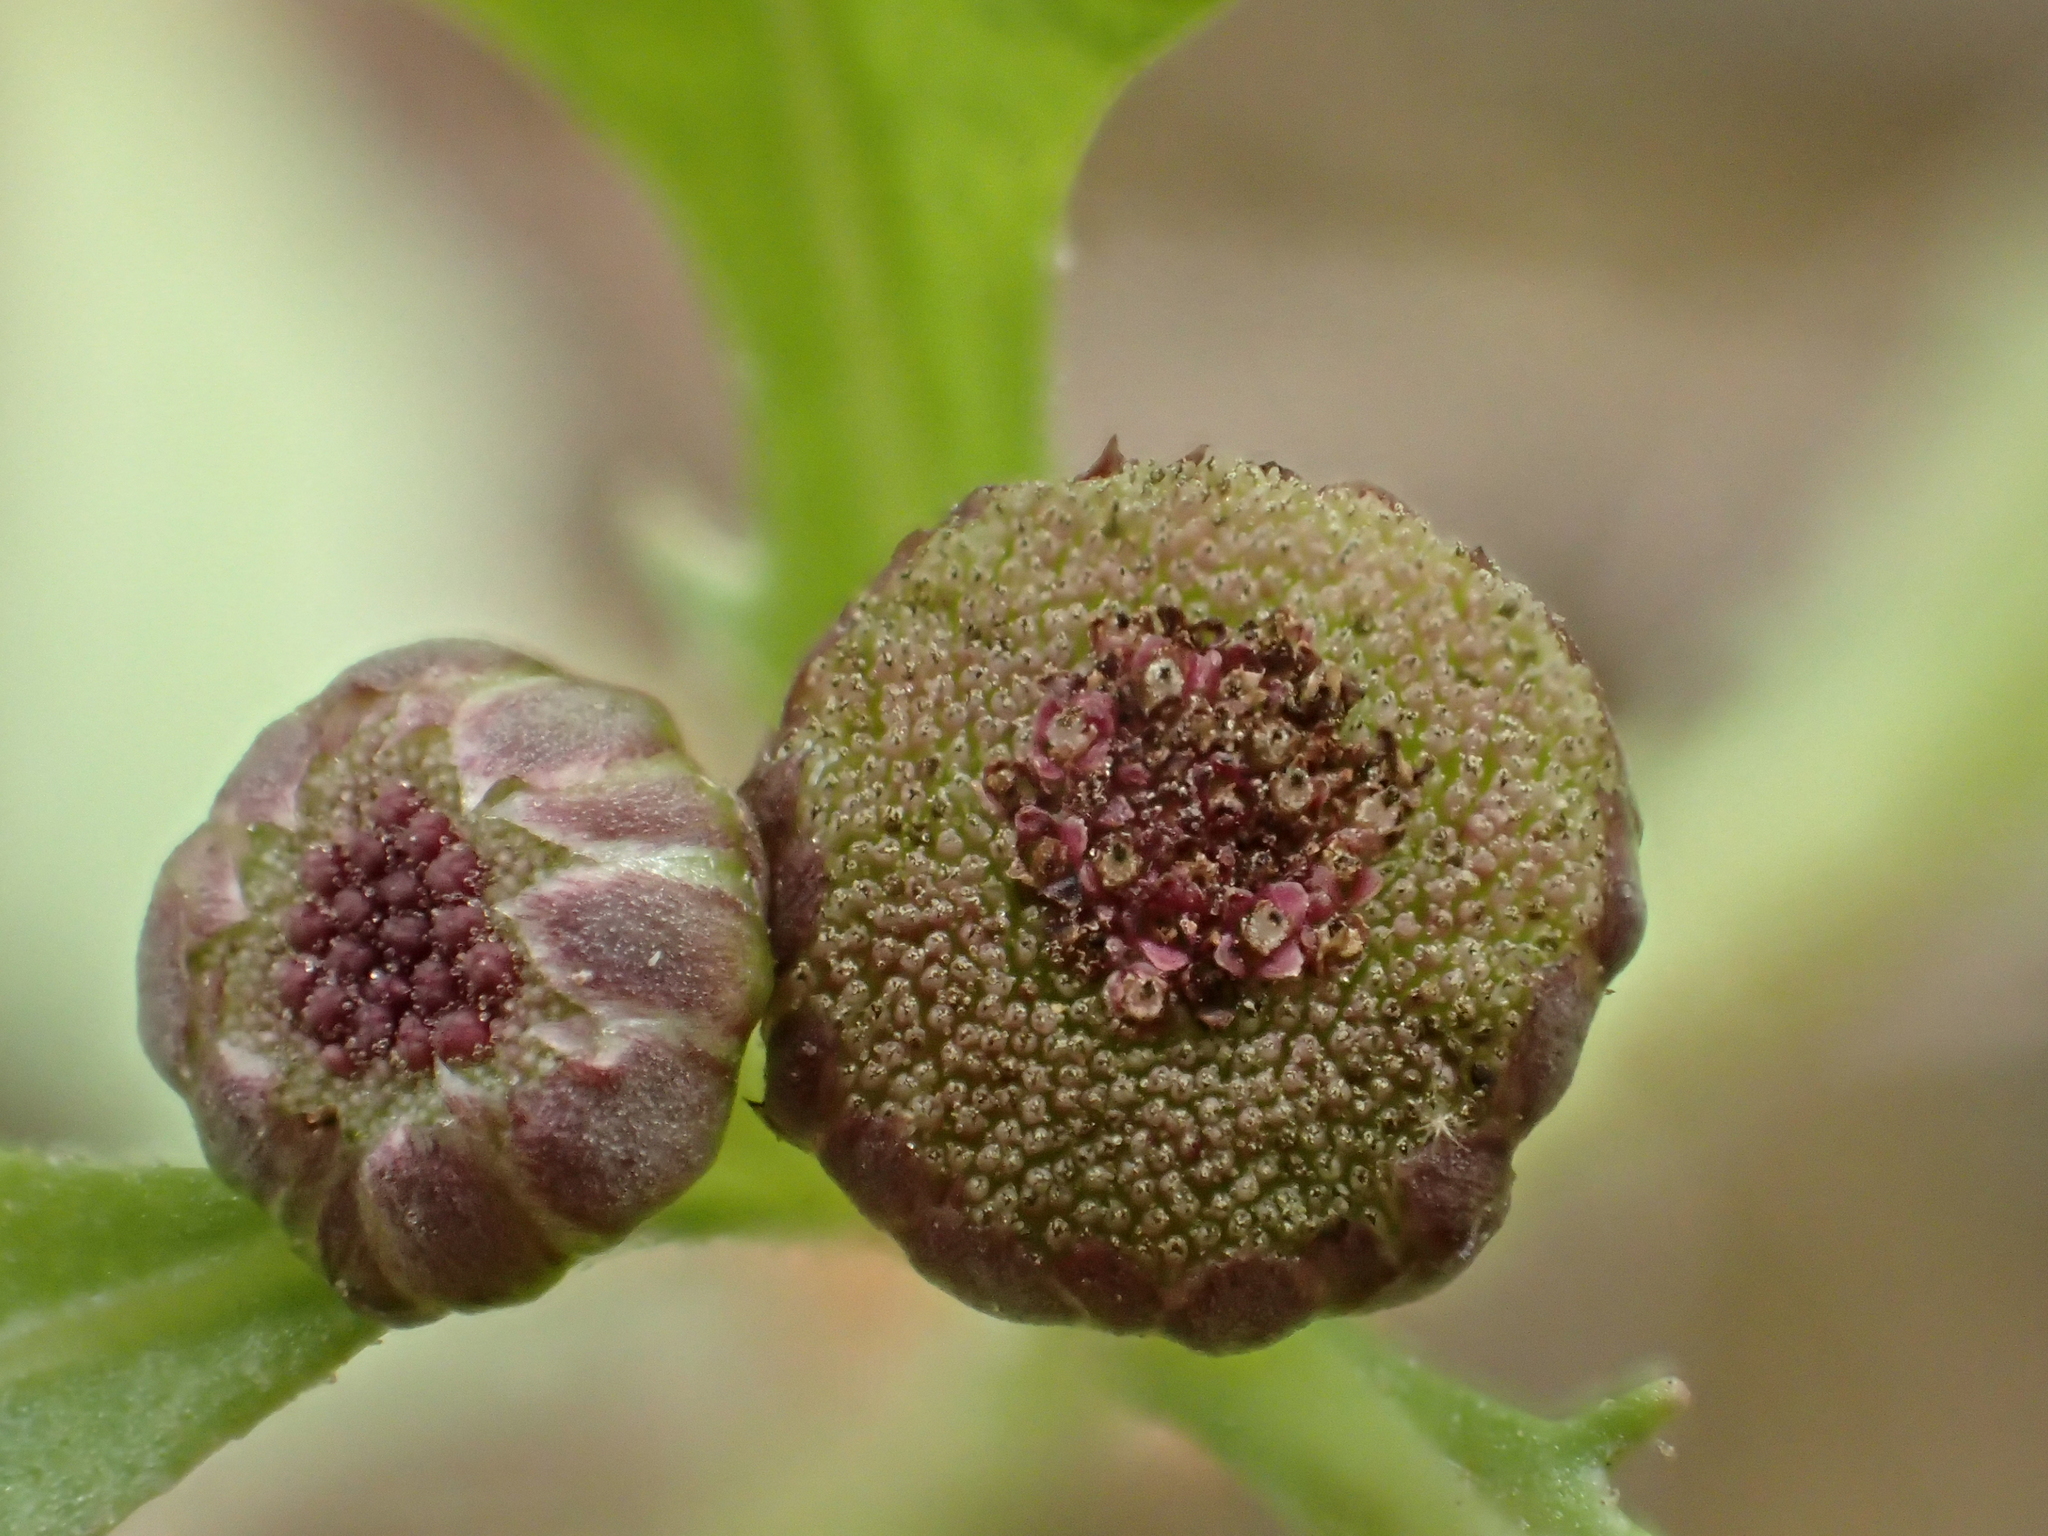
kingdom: Plantae
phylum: Tracheophyta
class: Magnoliopsida
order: Asterales
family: Asteraceae
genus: Sphaeromorphaea
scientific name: Sphaeromorphaea australis
